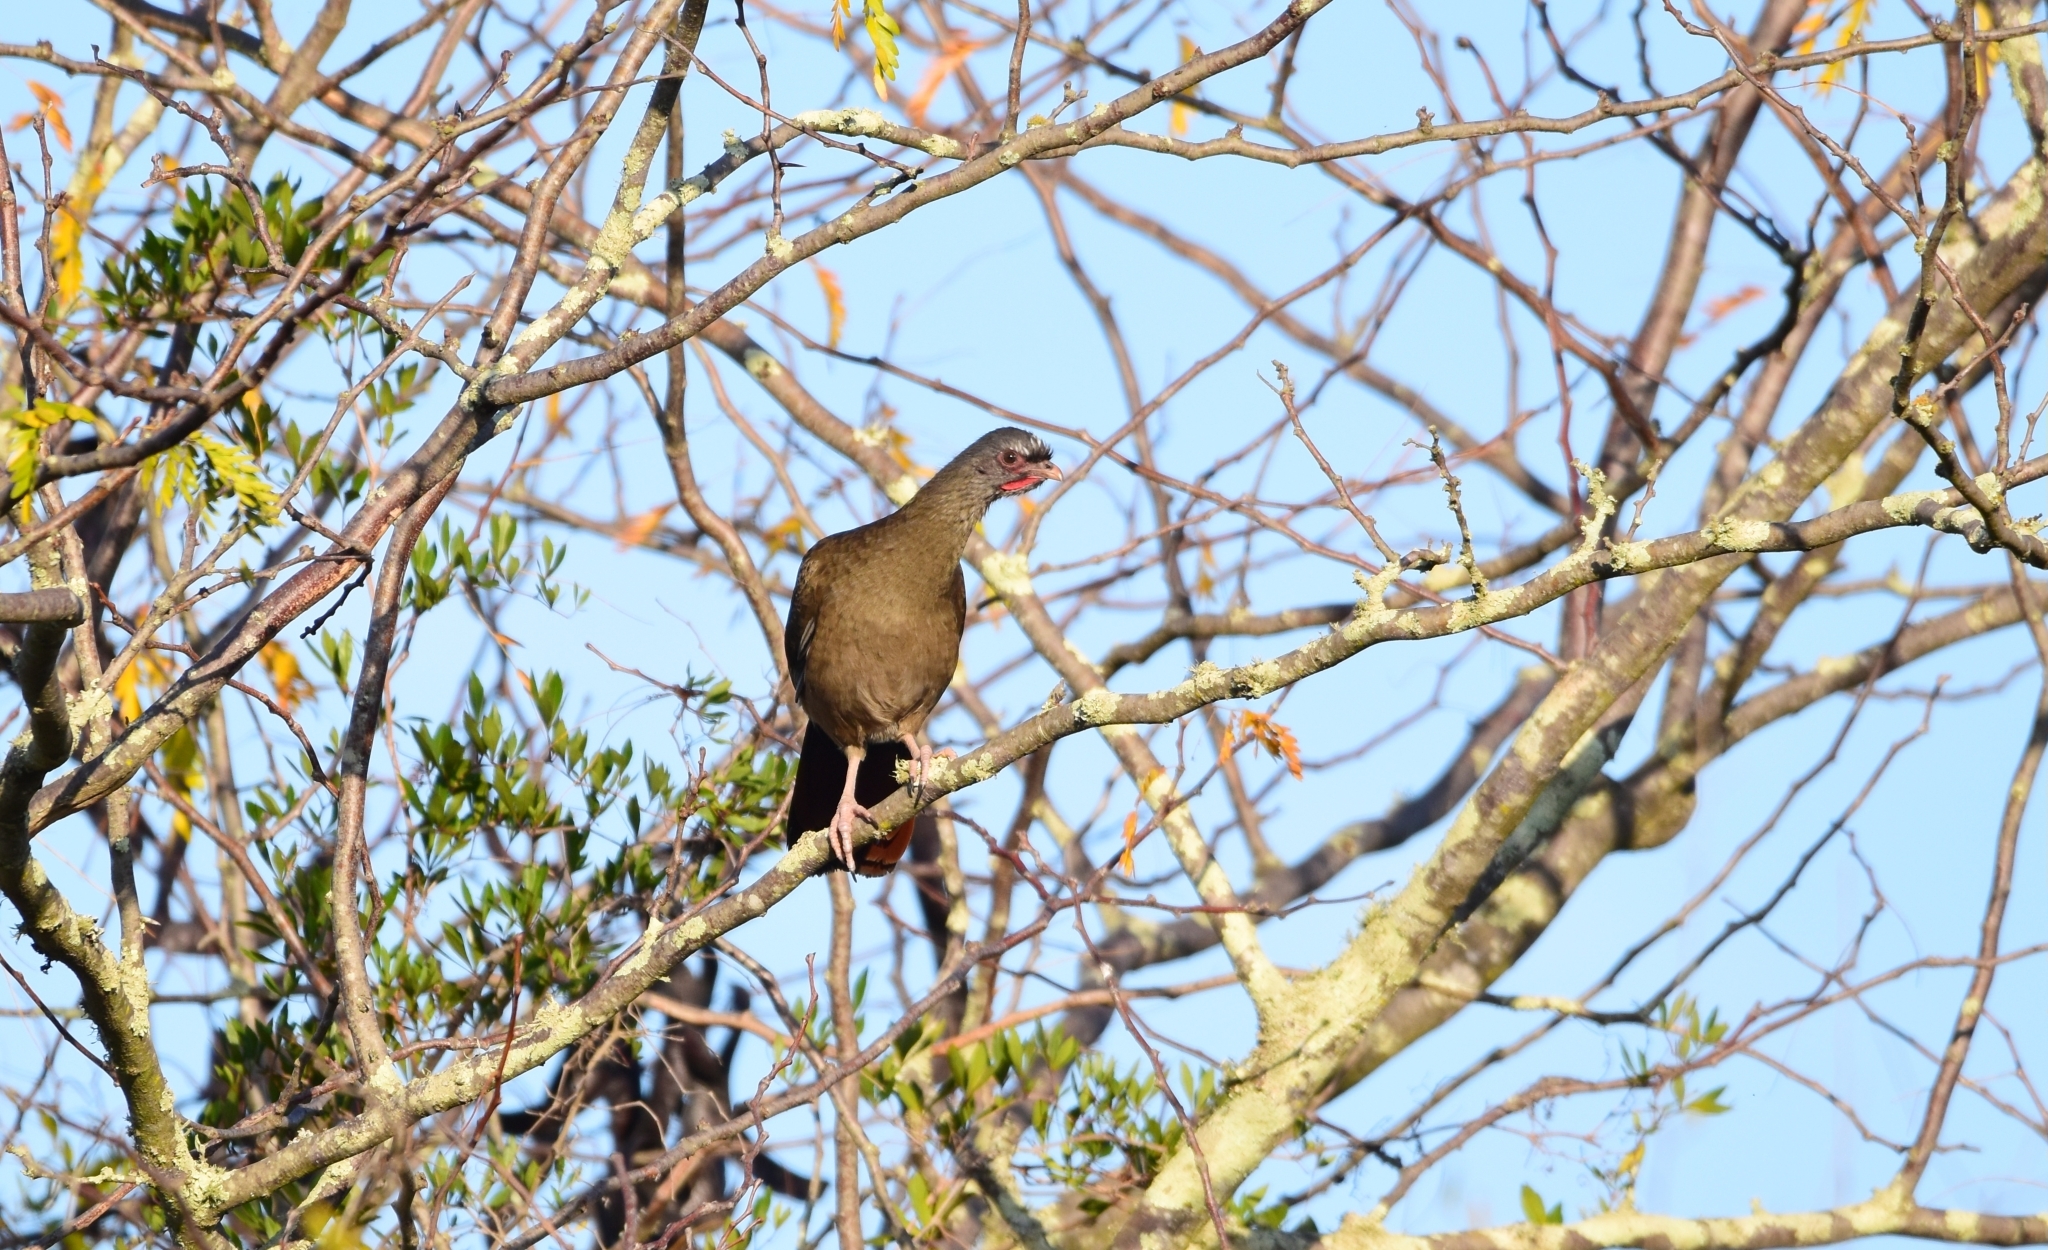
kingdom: Animalia
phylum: Chordata
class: Aves
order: Galliformes
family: Cracidae
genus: Ortalis
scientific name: Ortalis canicollis
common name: Chaco chachalaca
